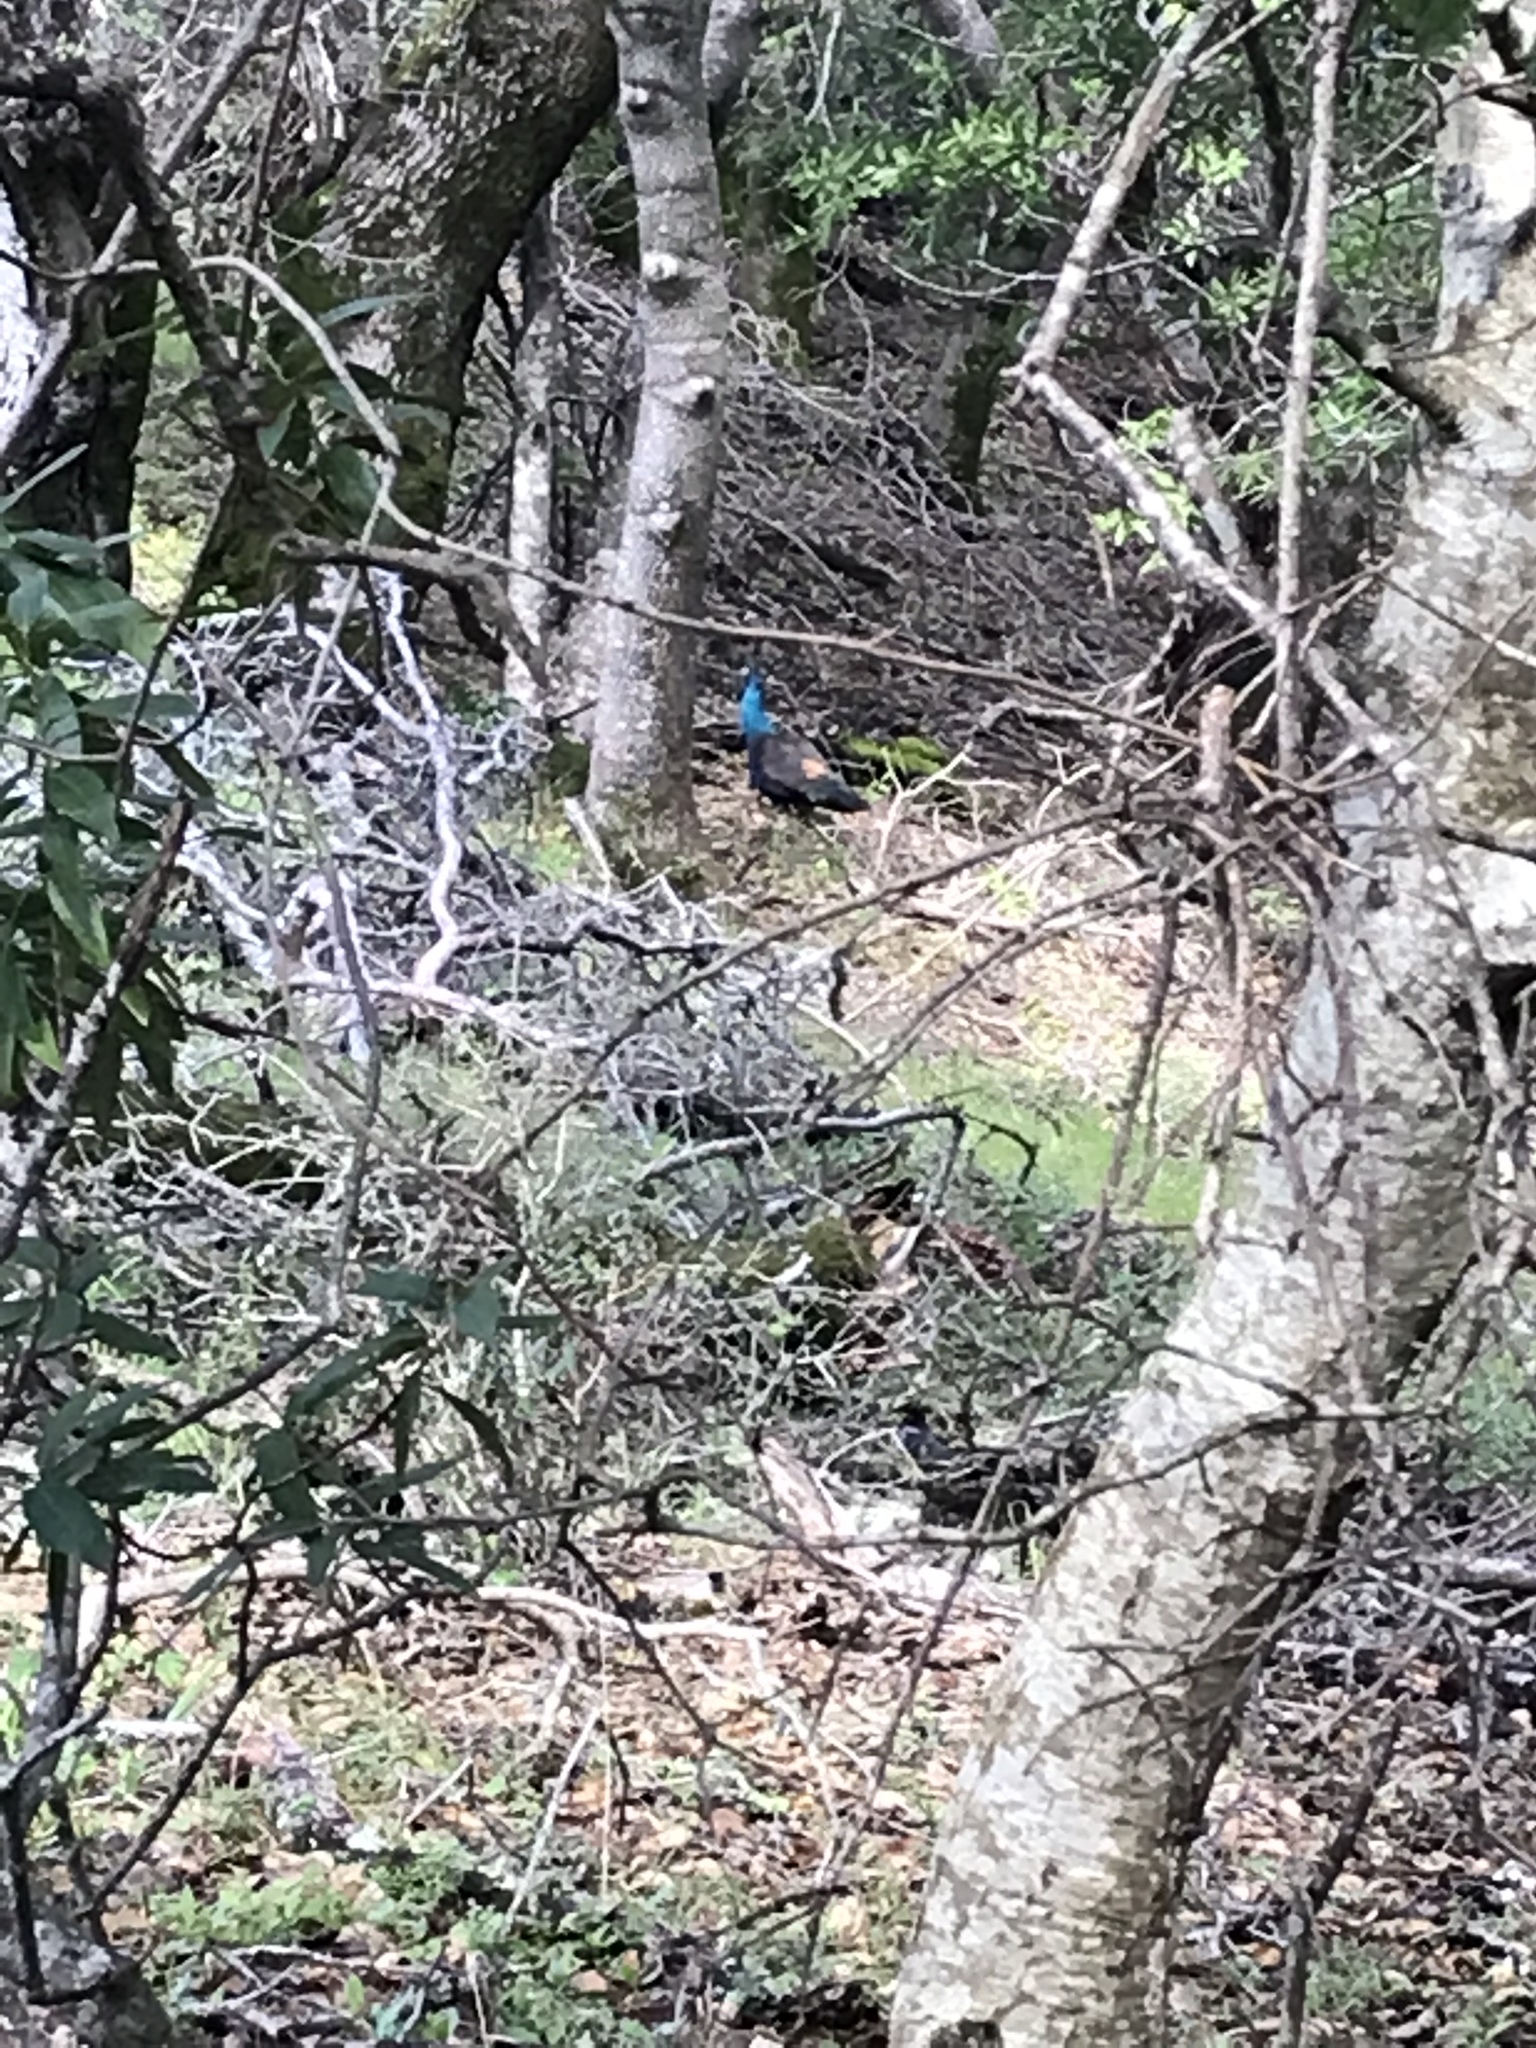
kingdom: Animalia
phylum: Chordata
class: Aves
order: Galliformes
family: Phasianidae
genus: Pavo
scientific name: Pavo cristatus
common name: Indian peafowl
